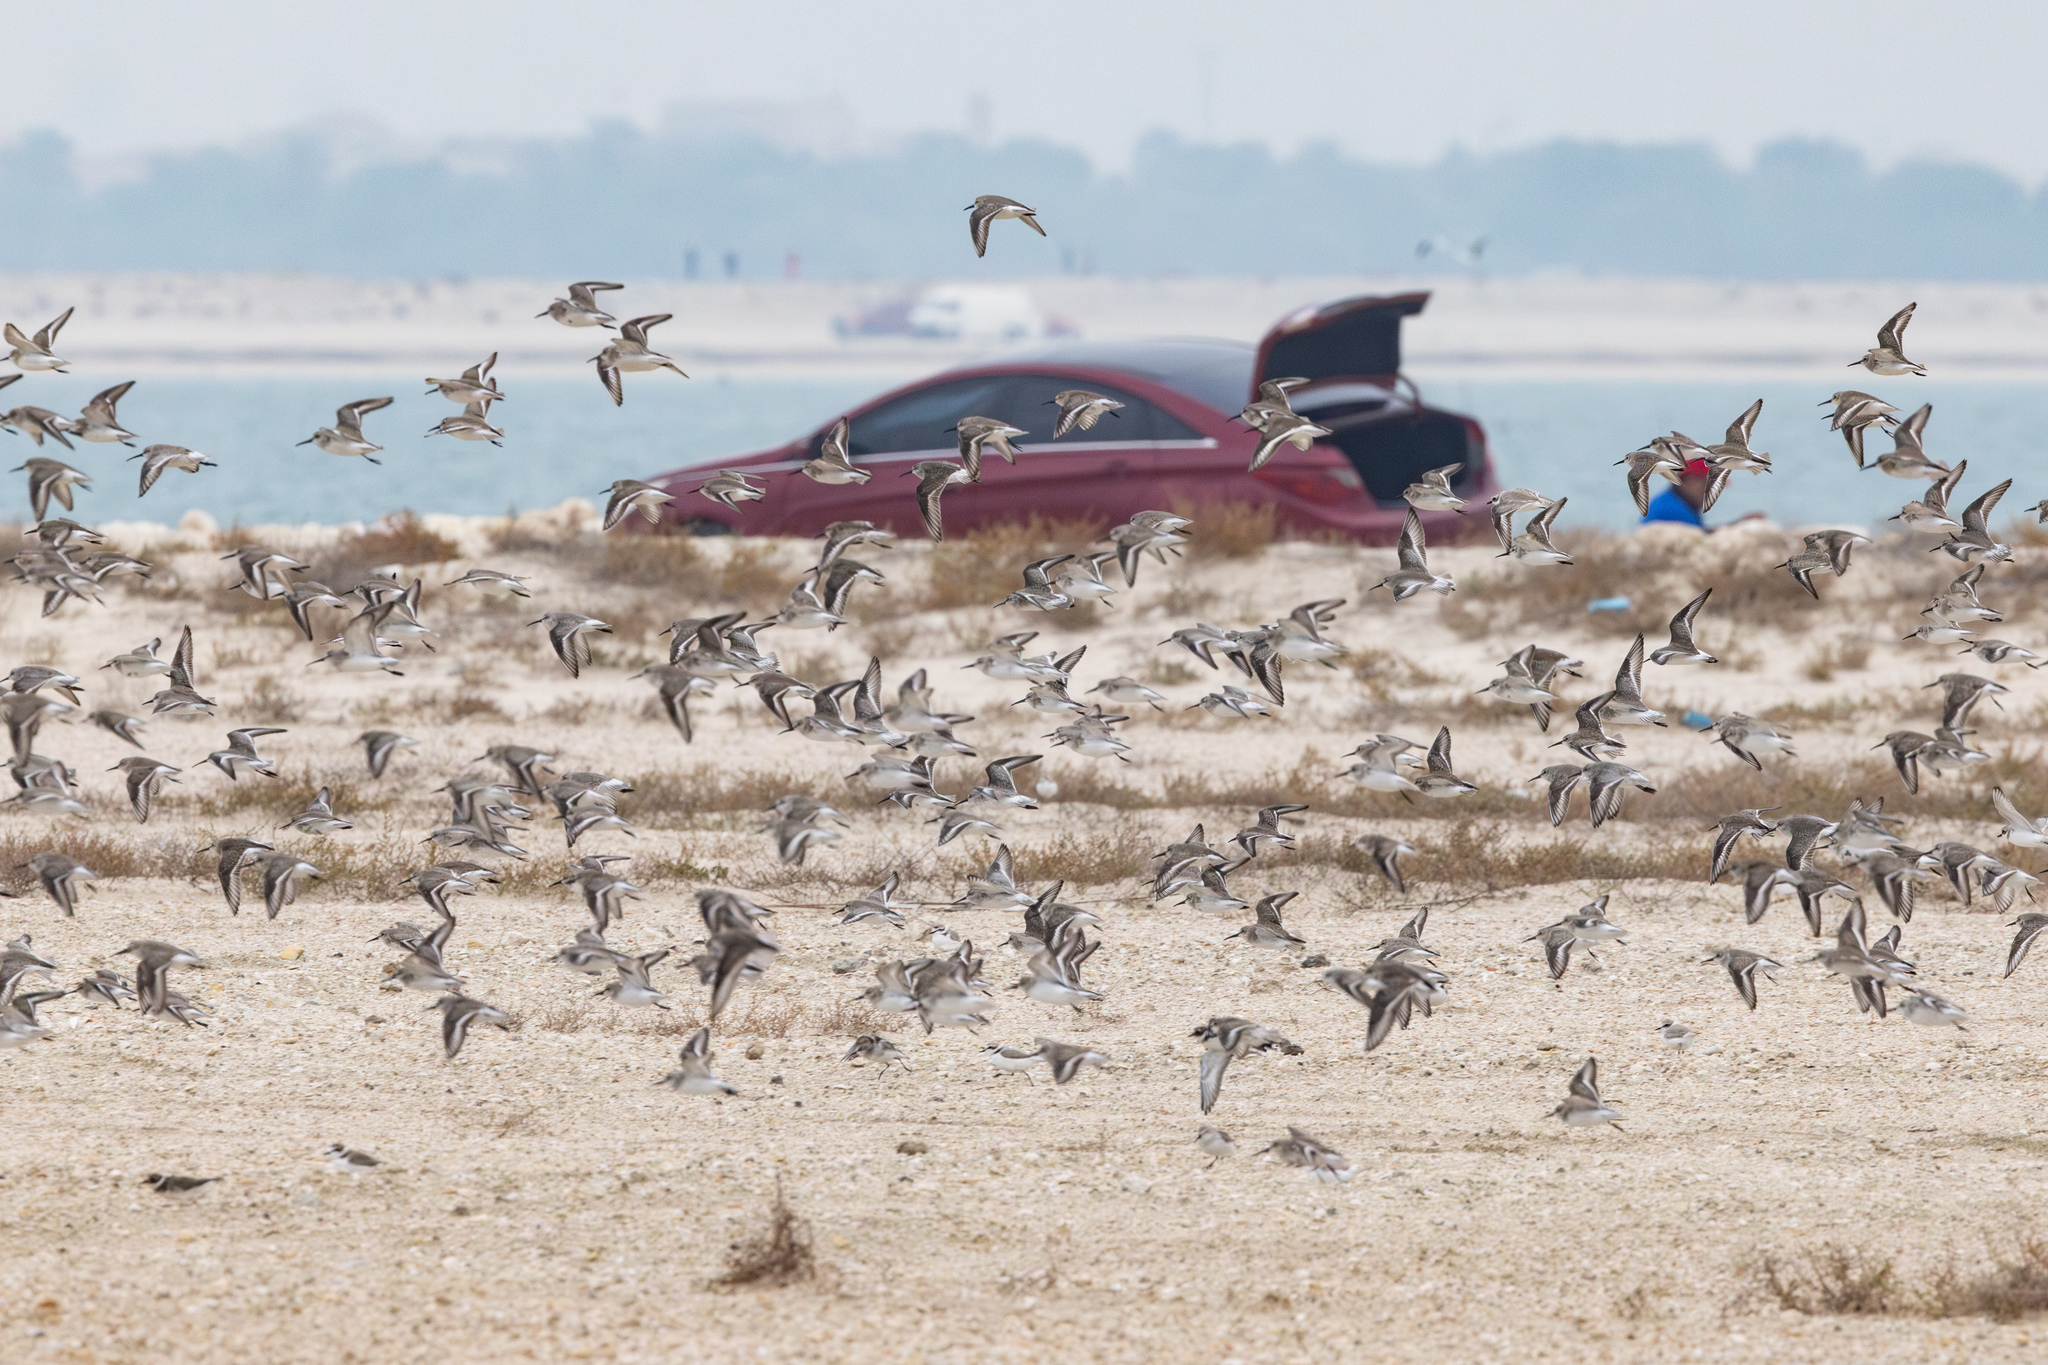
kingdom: Animalia
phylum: Chordata
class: Aves
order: Charadriiformes
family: Scolopacidae
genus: Calidris
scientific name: Calidris alpina
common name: Dunlin
